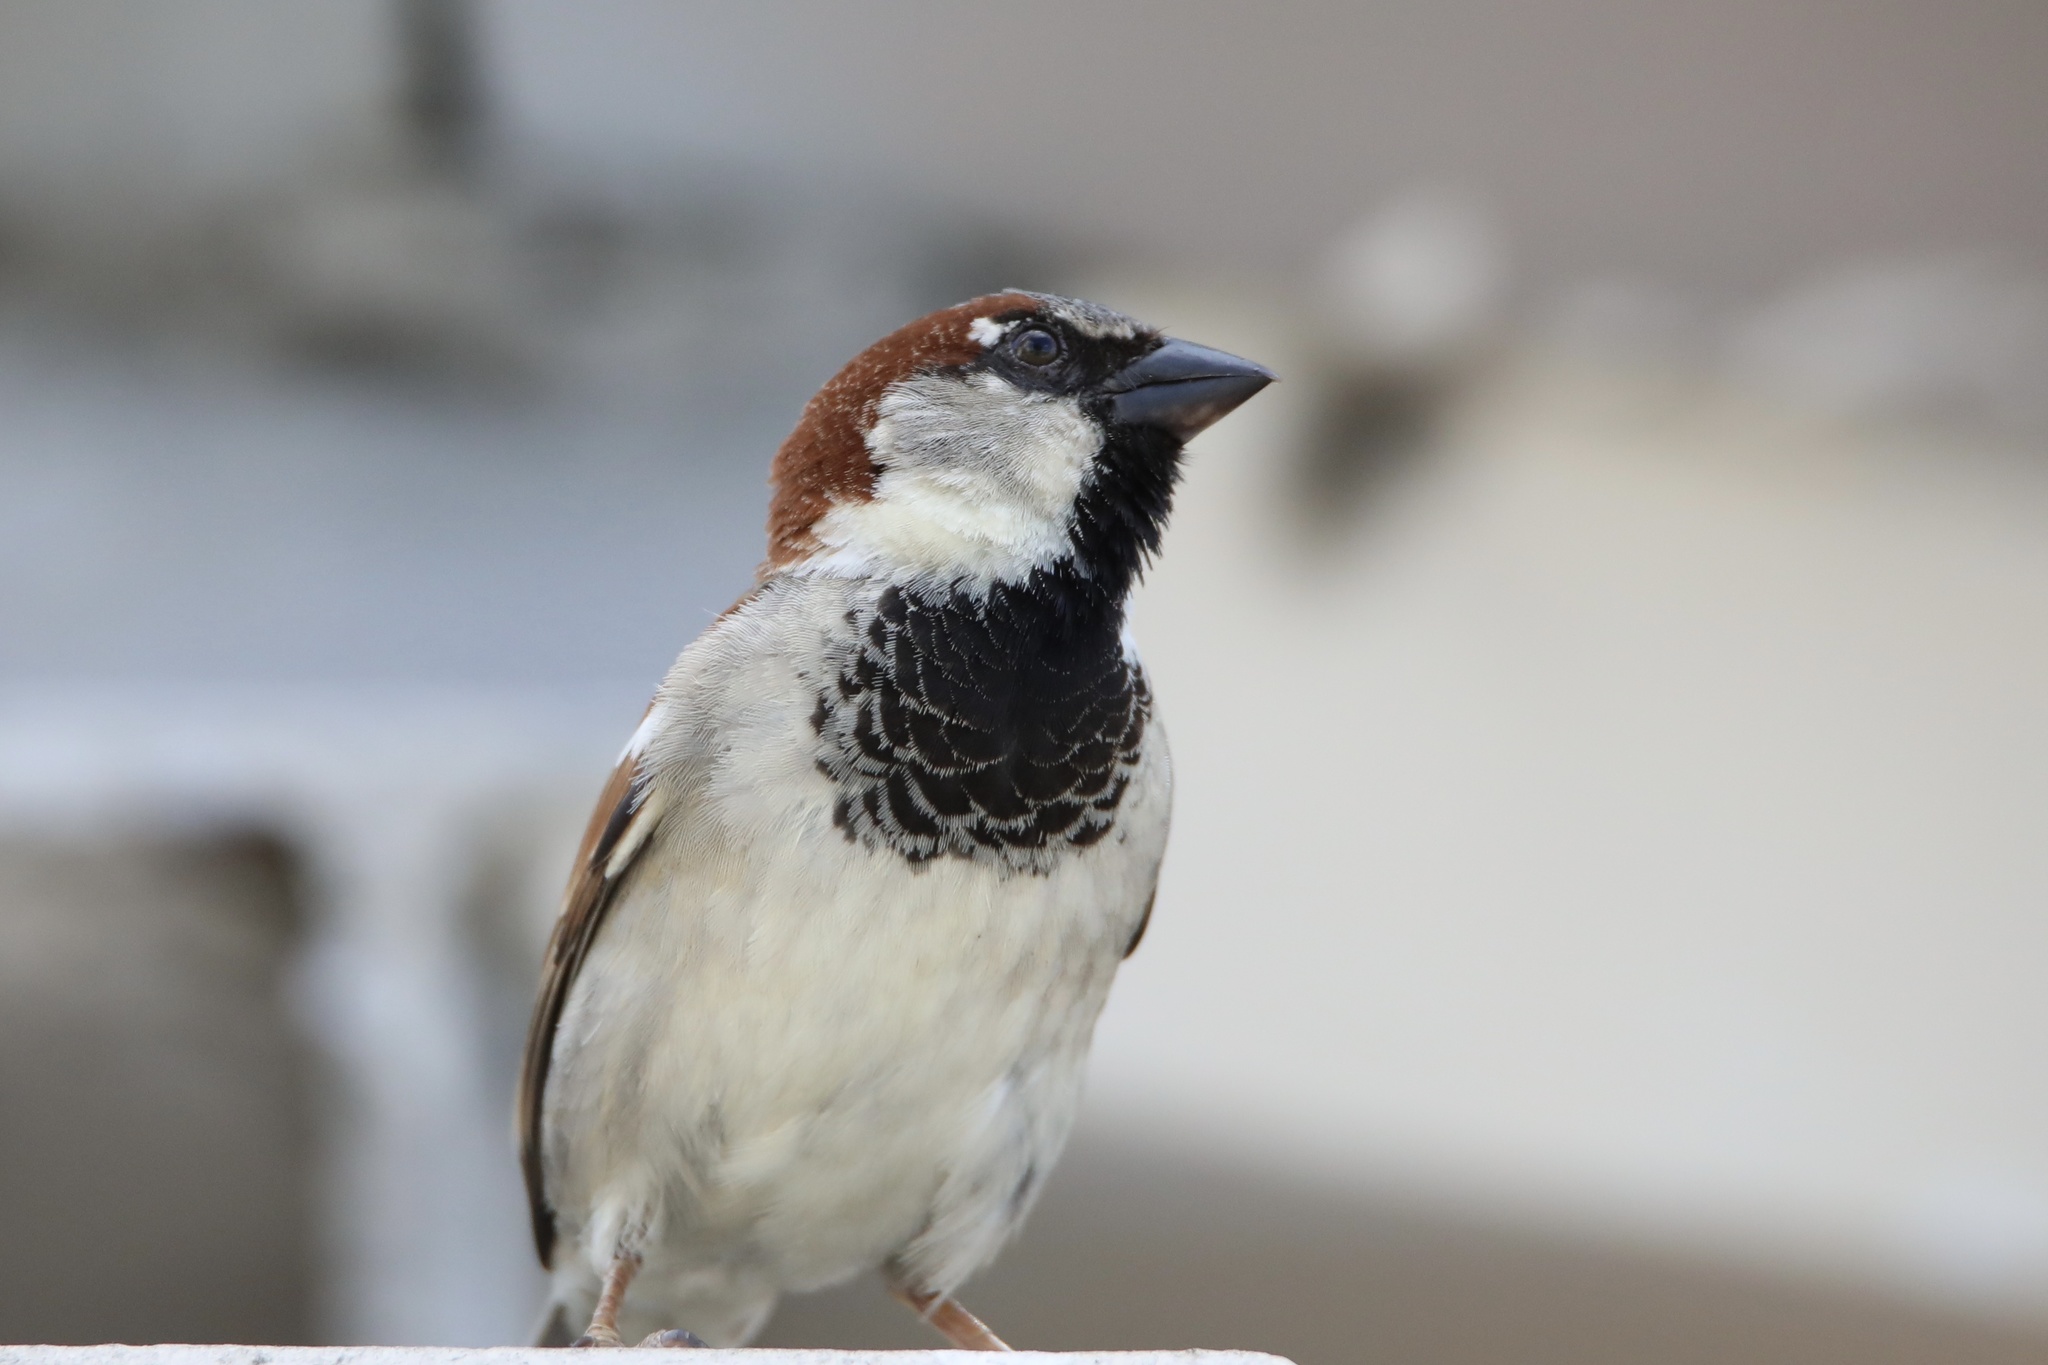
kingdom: Animalia
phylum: Chordata
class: Aves
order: Passeriformes
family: Passeridae
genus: Passer
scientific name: Passer domesticus
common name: House sparrow
